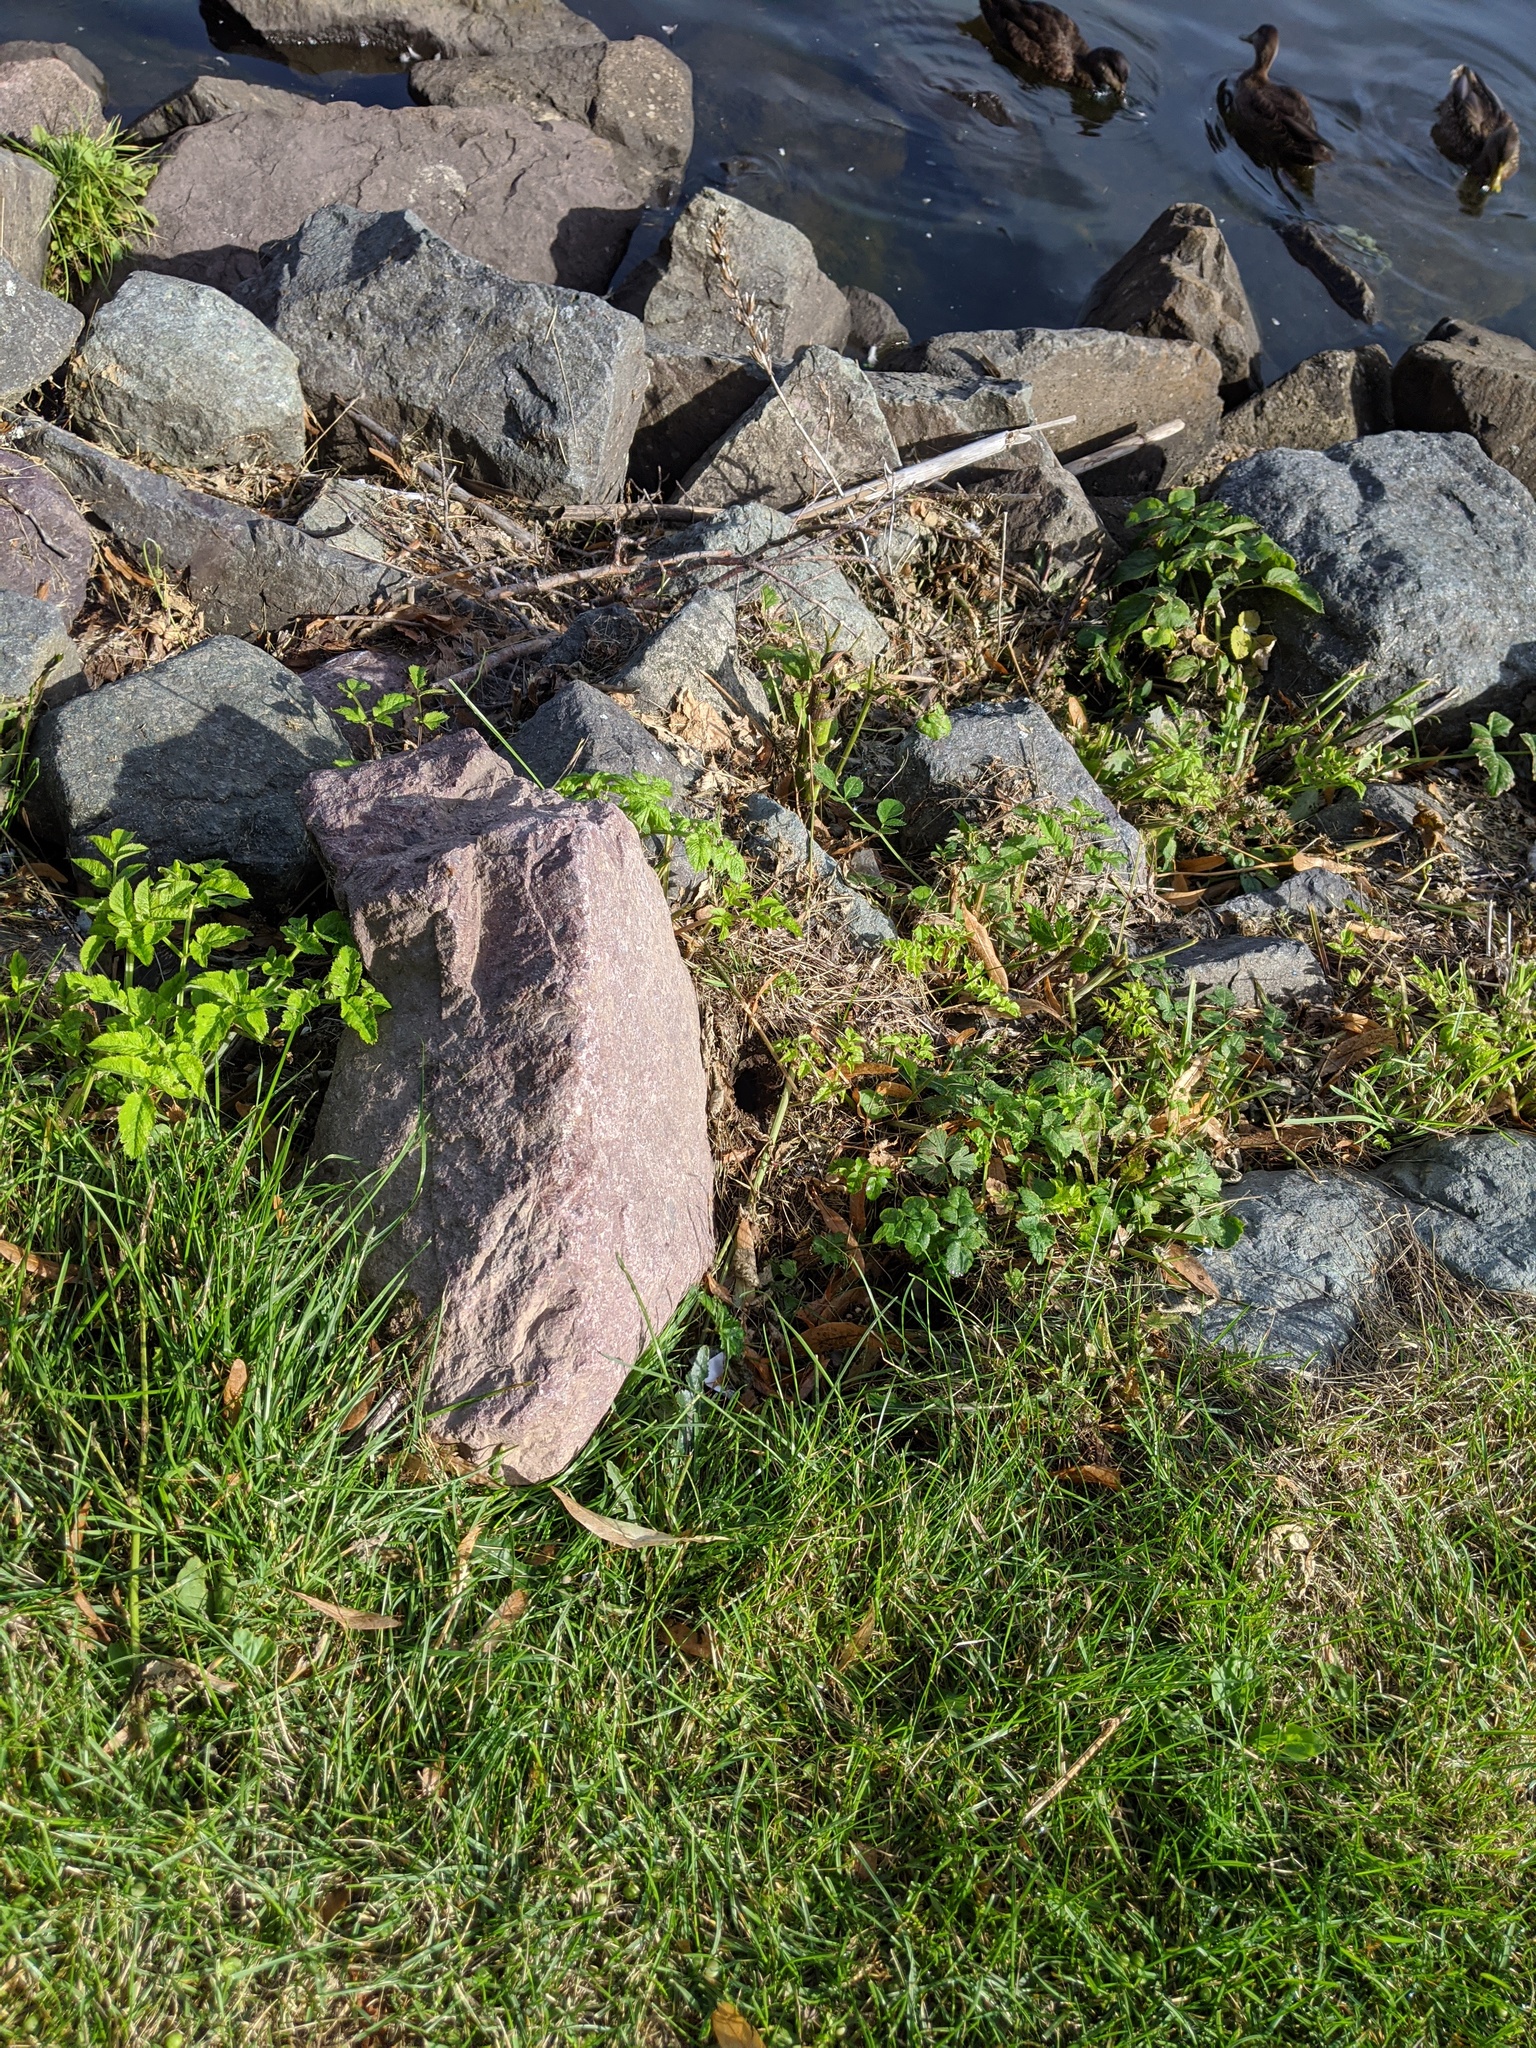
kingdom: Animalia
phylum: Arthropoda
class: Insecta
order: Hymenoptera
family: Vespidae
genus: Vespula
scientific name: Vespula
